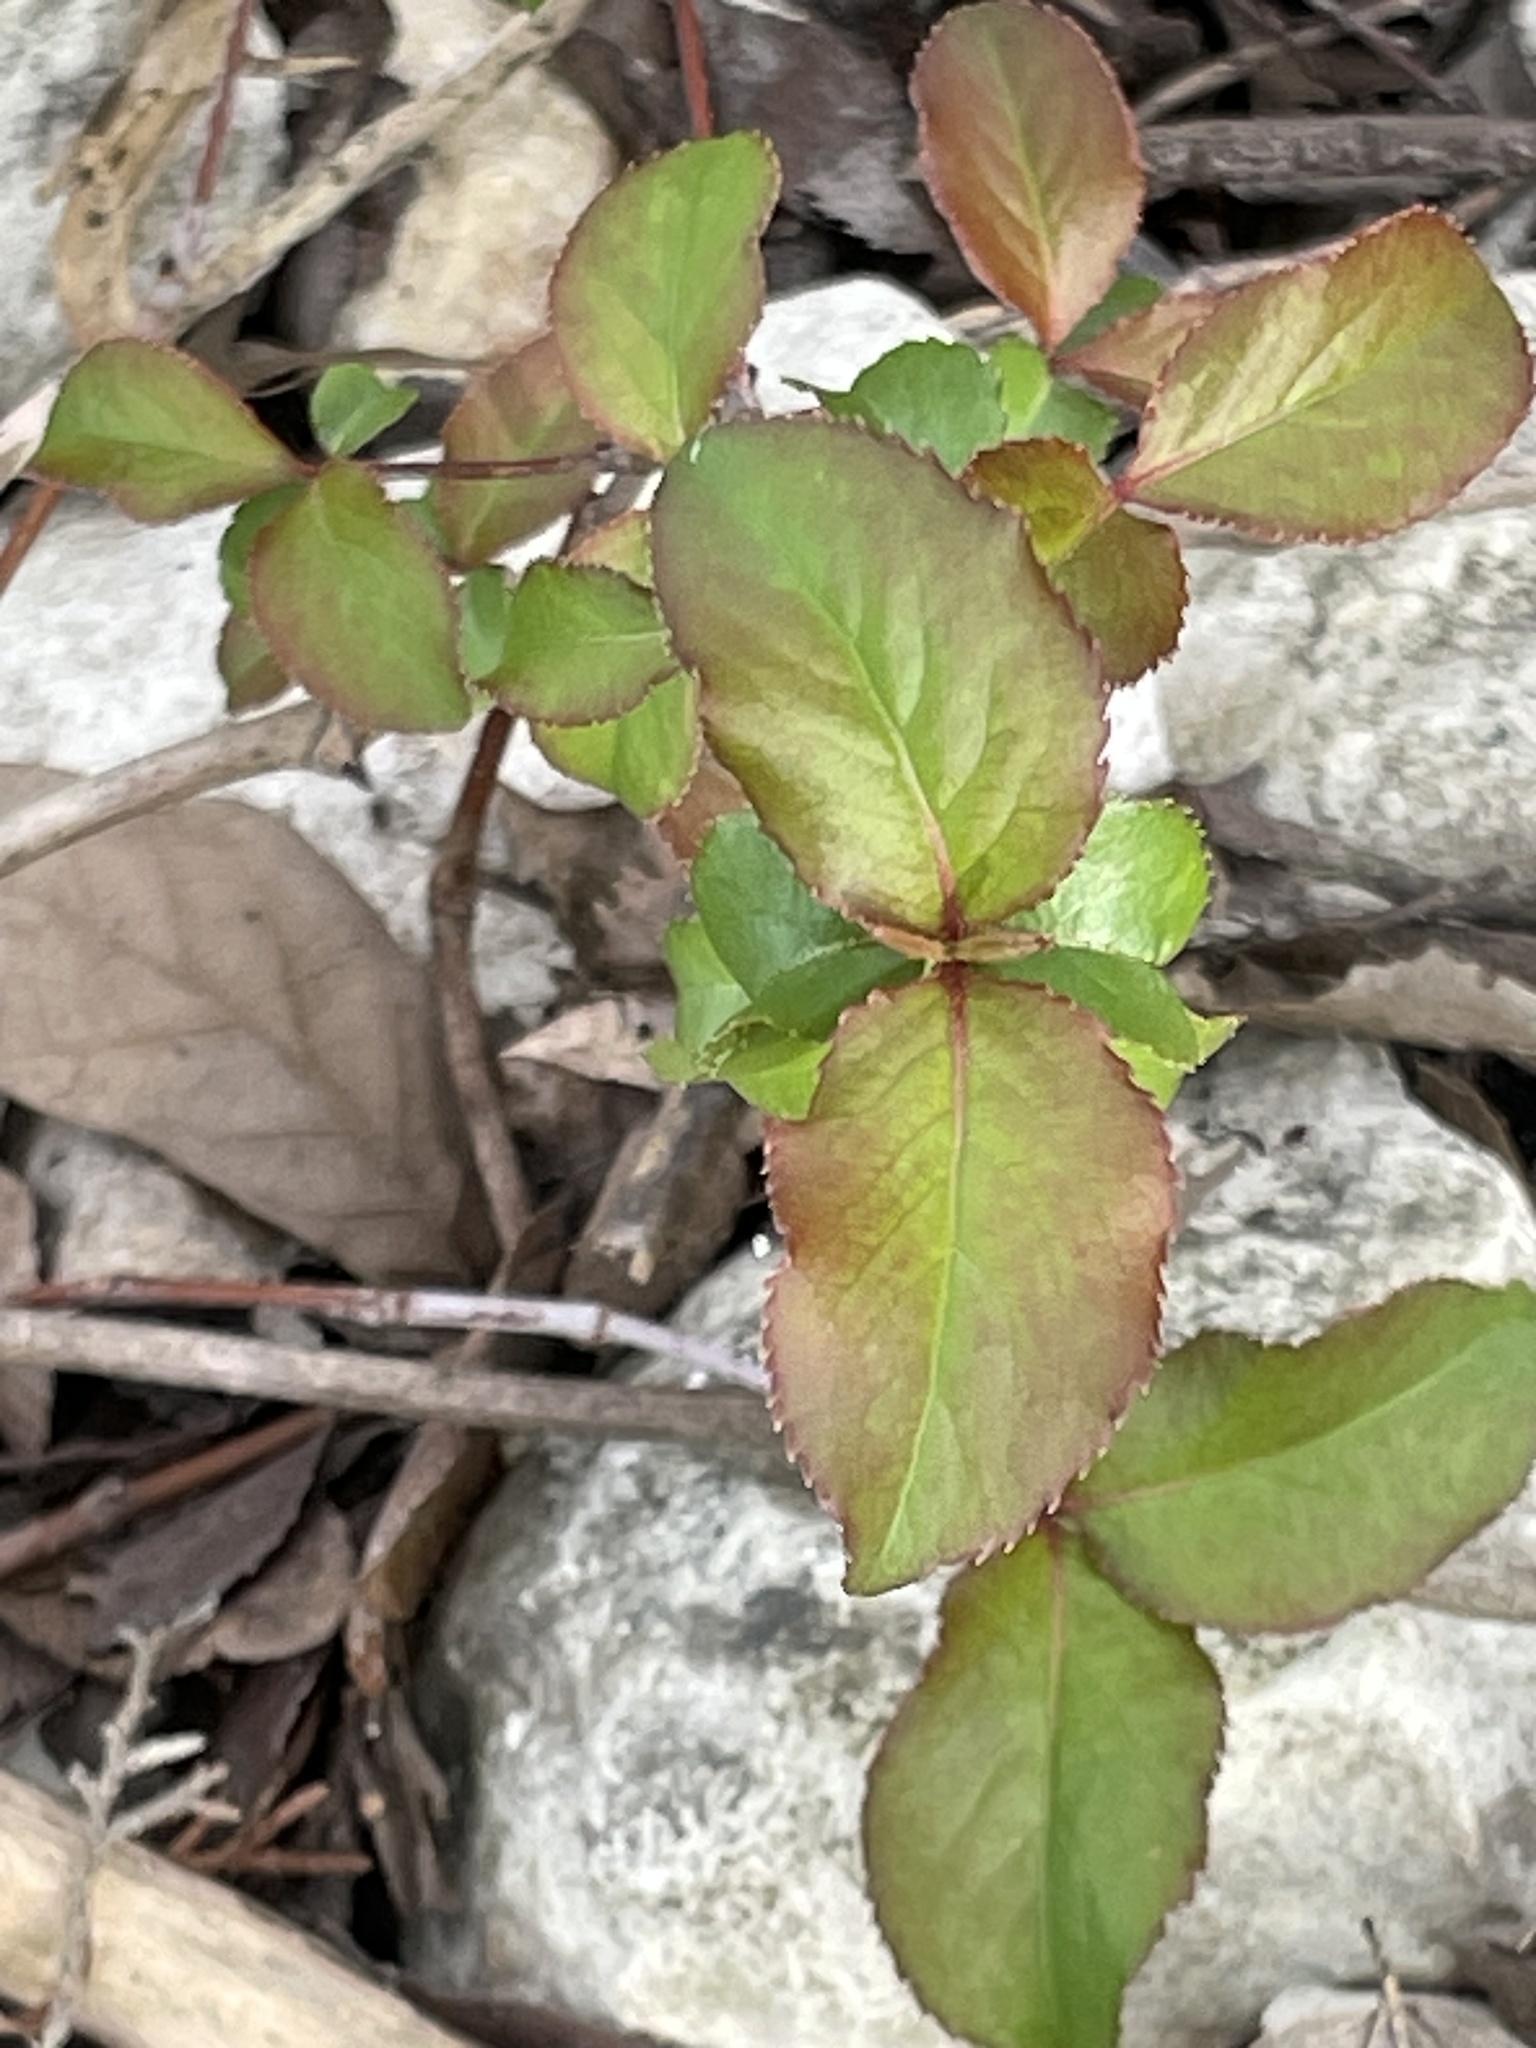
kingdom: Plantae
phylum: Tracheophyta
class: Magnoliopsida
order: Dipsacales
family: Viburnaceae
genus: Viburnum
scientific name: Viburnum rufidulum
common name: Blue haw
